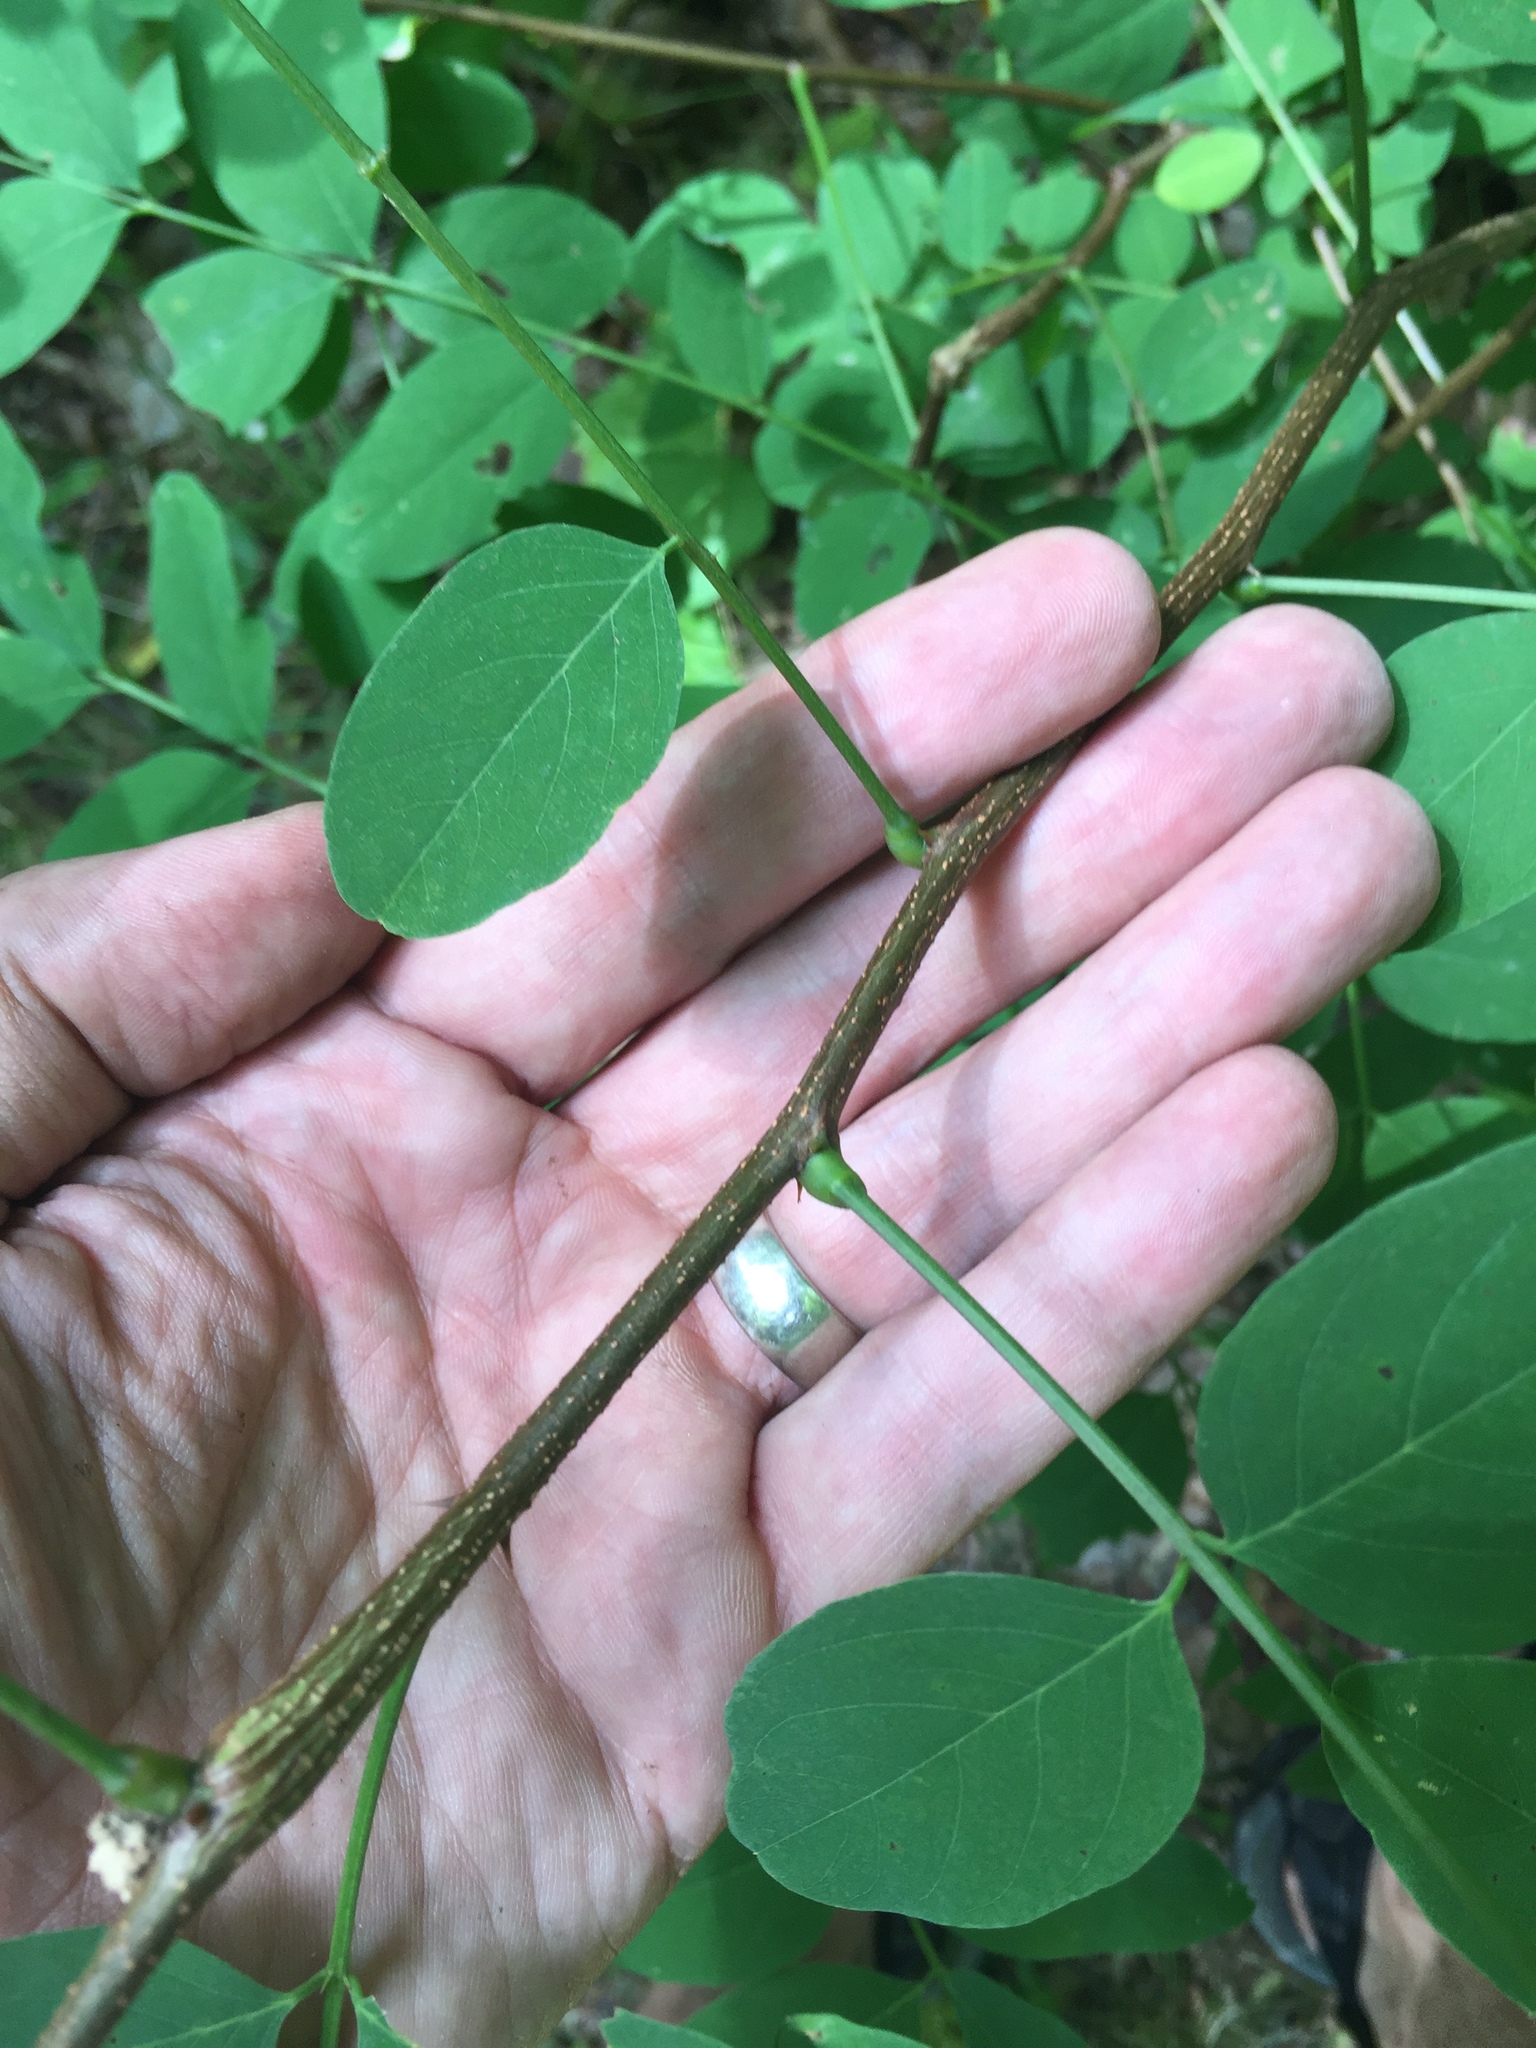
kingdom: Plantae
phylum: Tracheophyta
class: Magnoliopsida
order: Fabales
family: Fabaceae
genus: Robinia
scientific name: Robinia pseudoacacia
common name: Black locust
